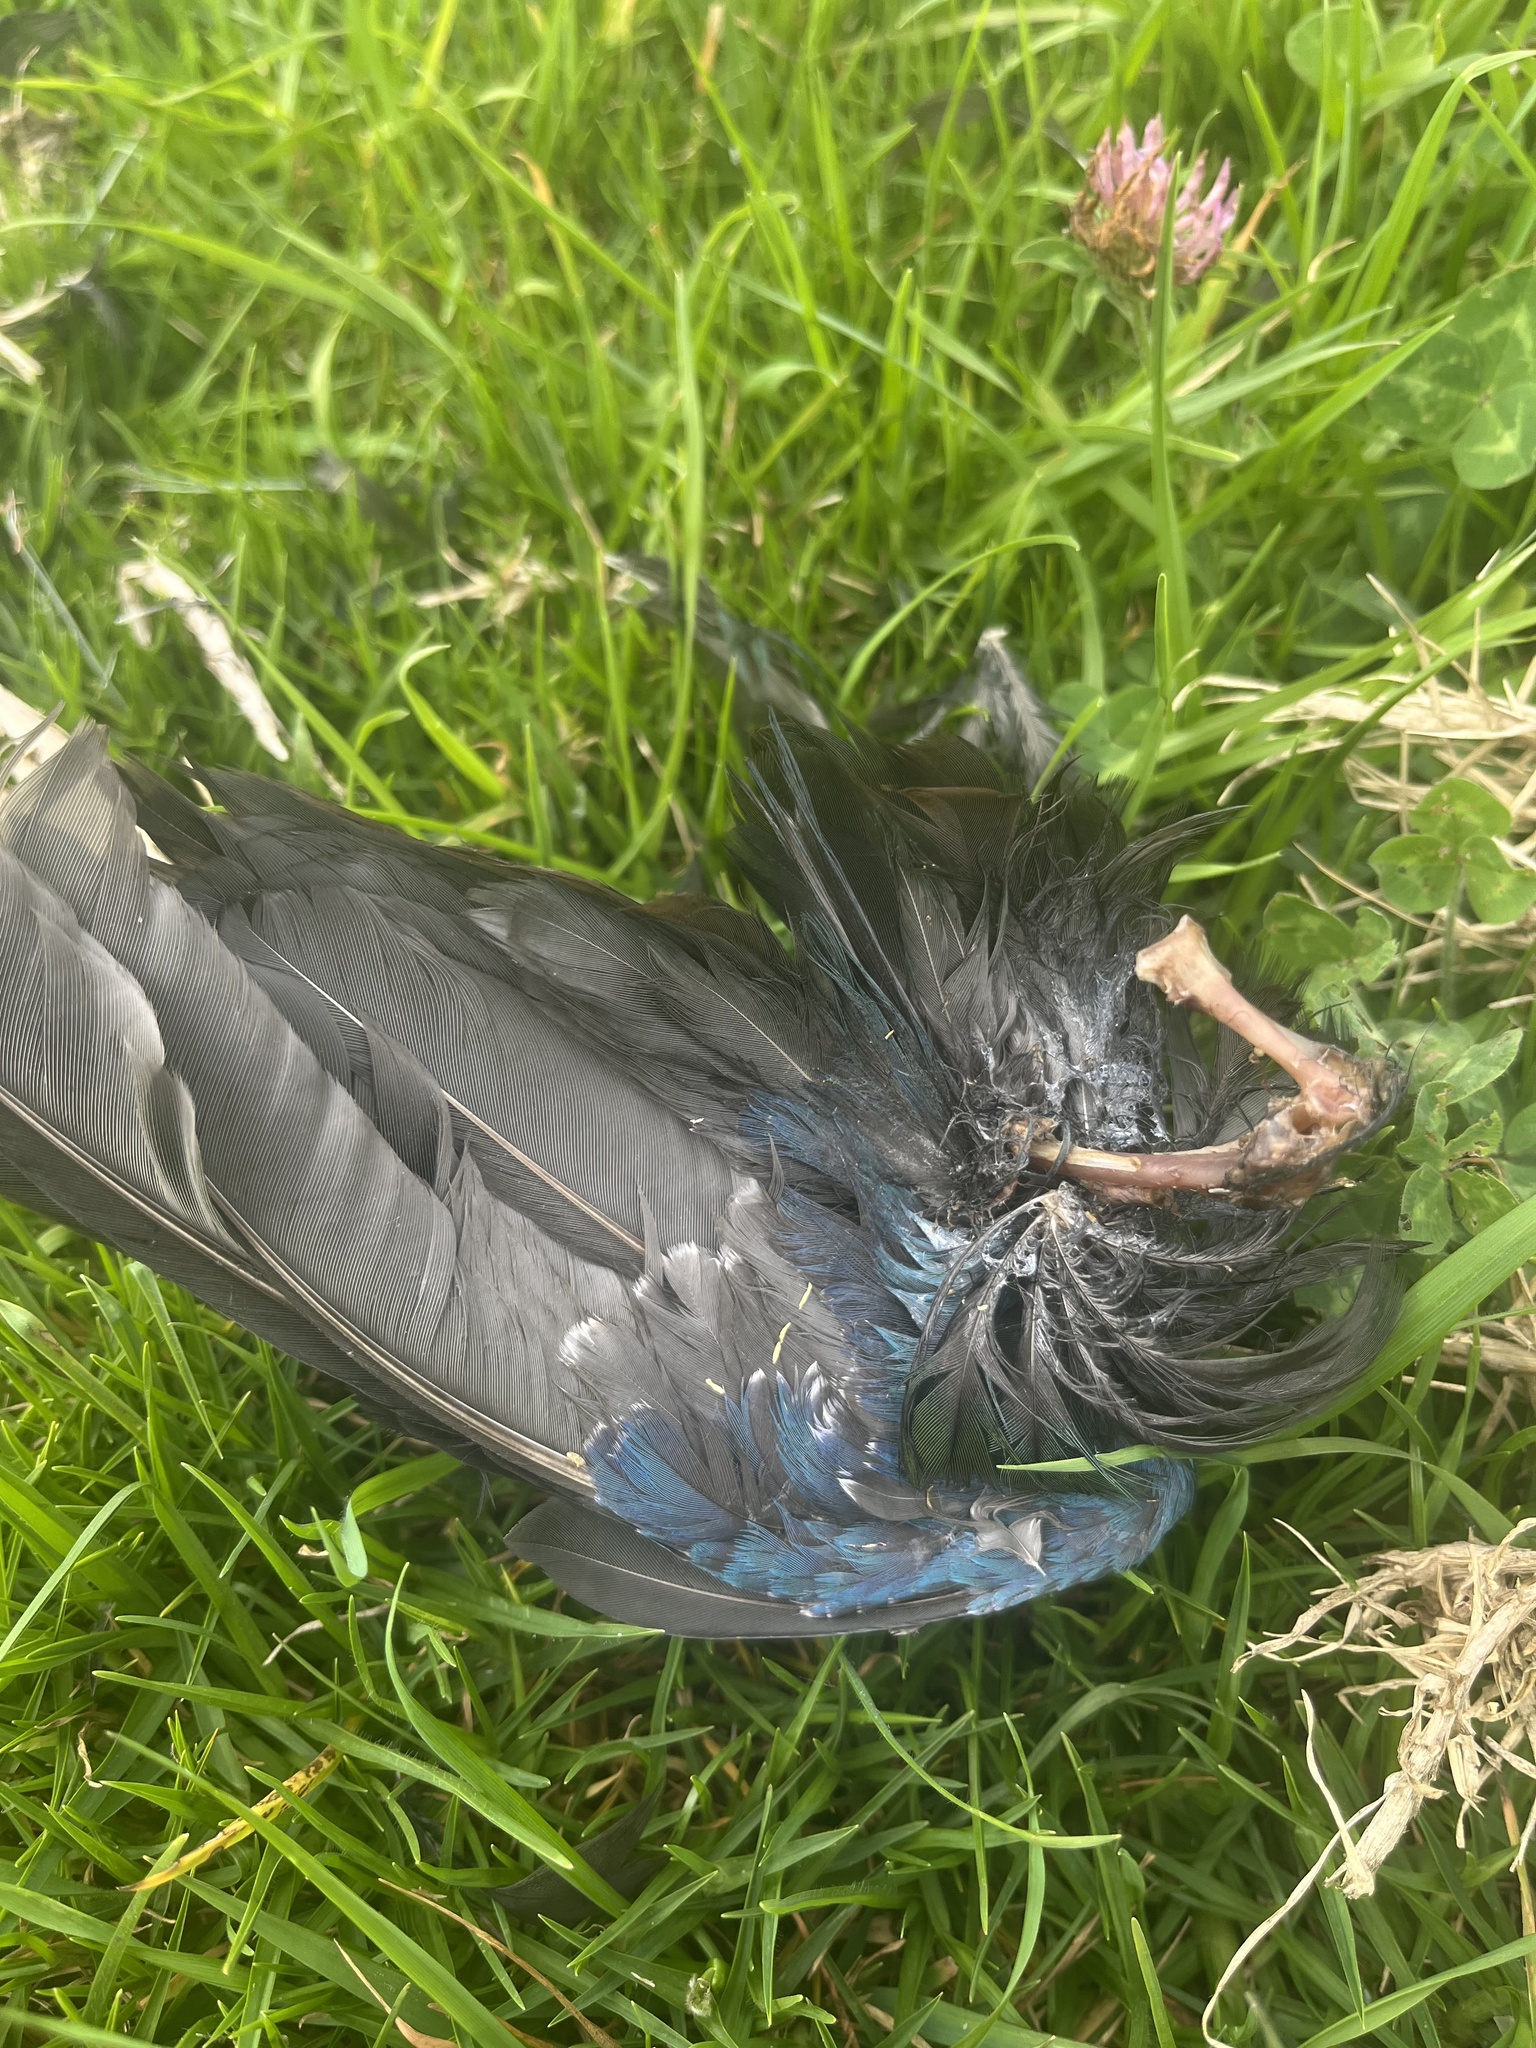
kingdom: Animalia
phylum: Chordata
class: Aves
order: Gruiformes
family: Rallidae
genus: Porphyrio
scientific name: Porphyrio martinica
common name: Purple gallinule
